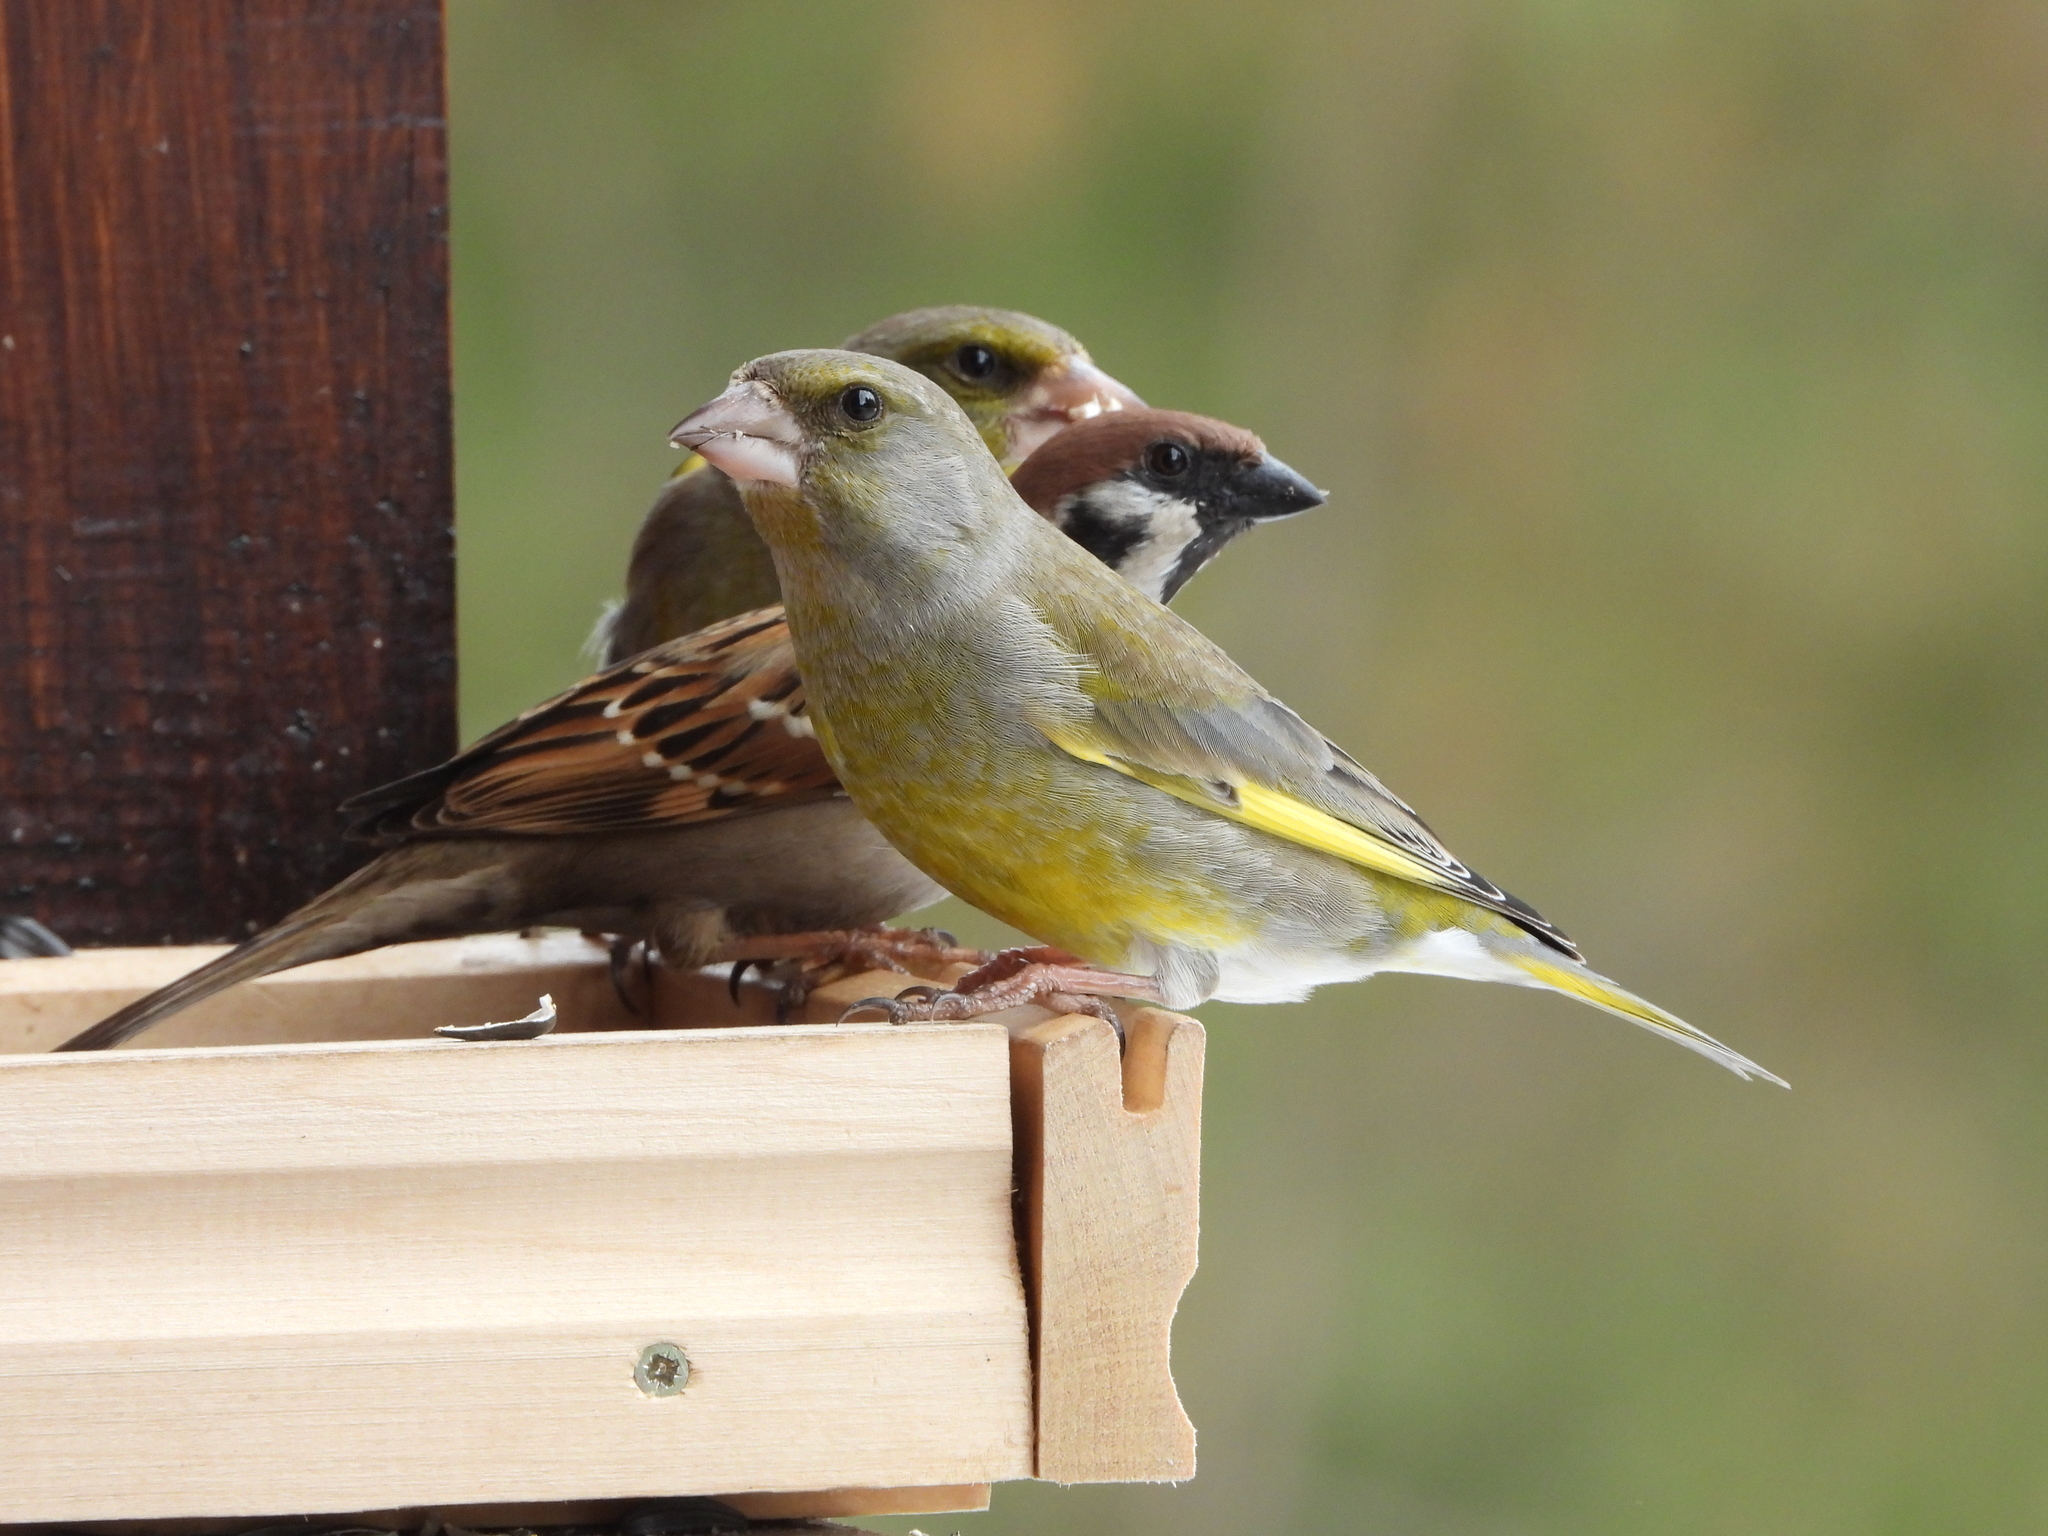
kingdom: Plantae
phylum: Tracheophyta
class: Liliopsida
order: Poales
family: Poaceae
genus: Chloris
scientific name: Chloris chloris
